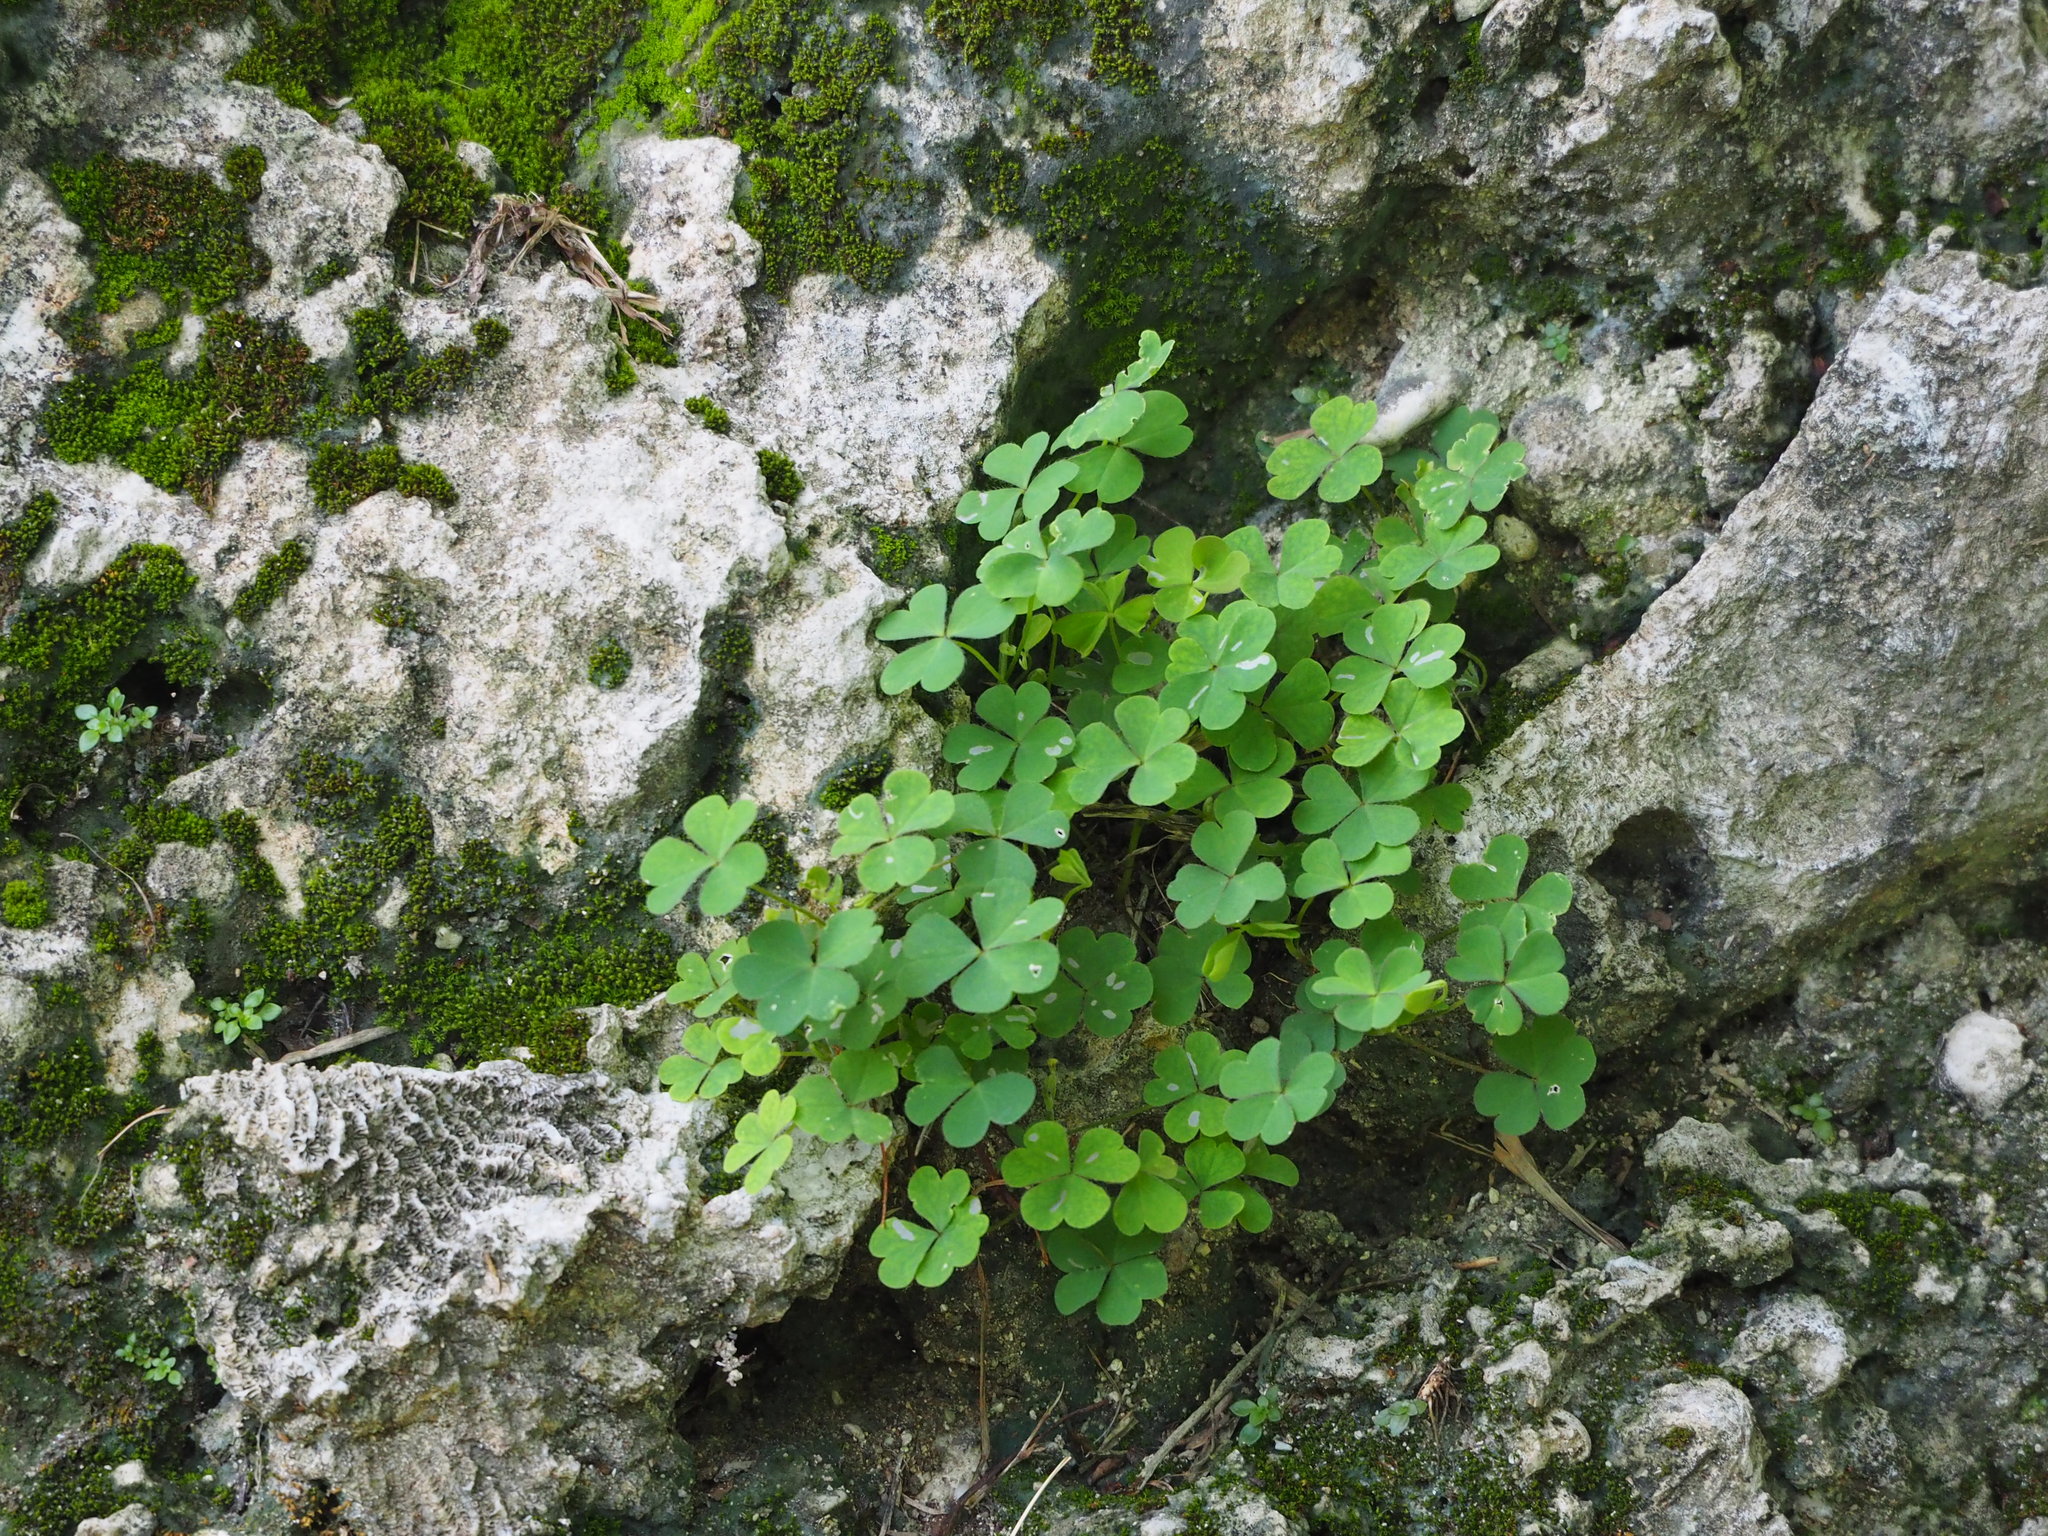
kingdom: Plantae
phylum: Tracheophyta
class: Magnoliopsida
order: Oxalidales
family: Oxalidaceae
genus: Oxalis
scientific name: Oxalis corniculata
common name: Procumbent yellow-sorrel
